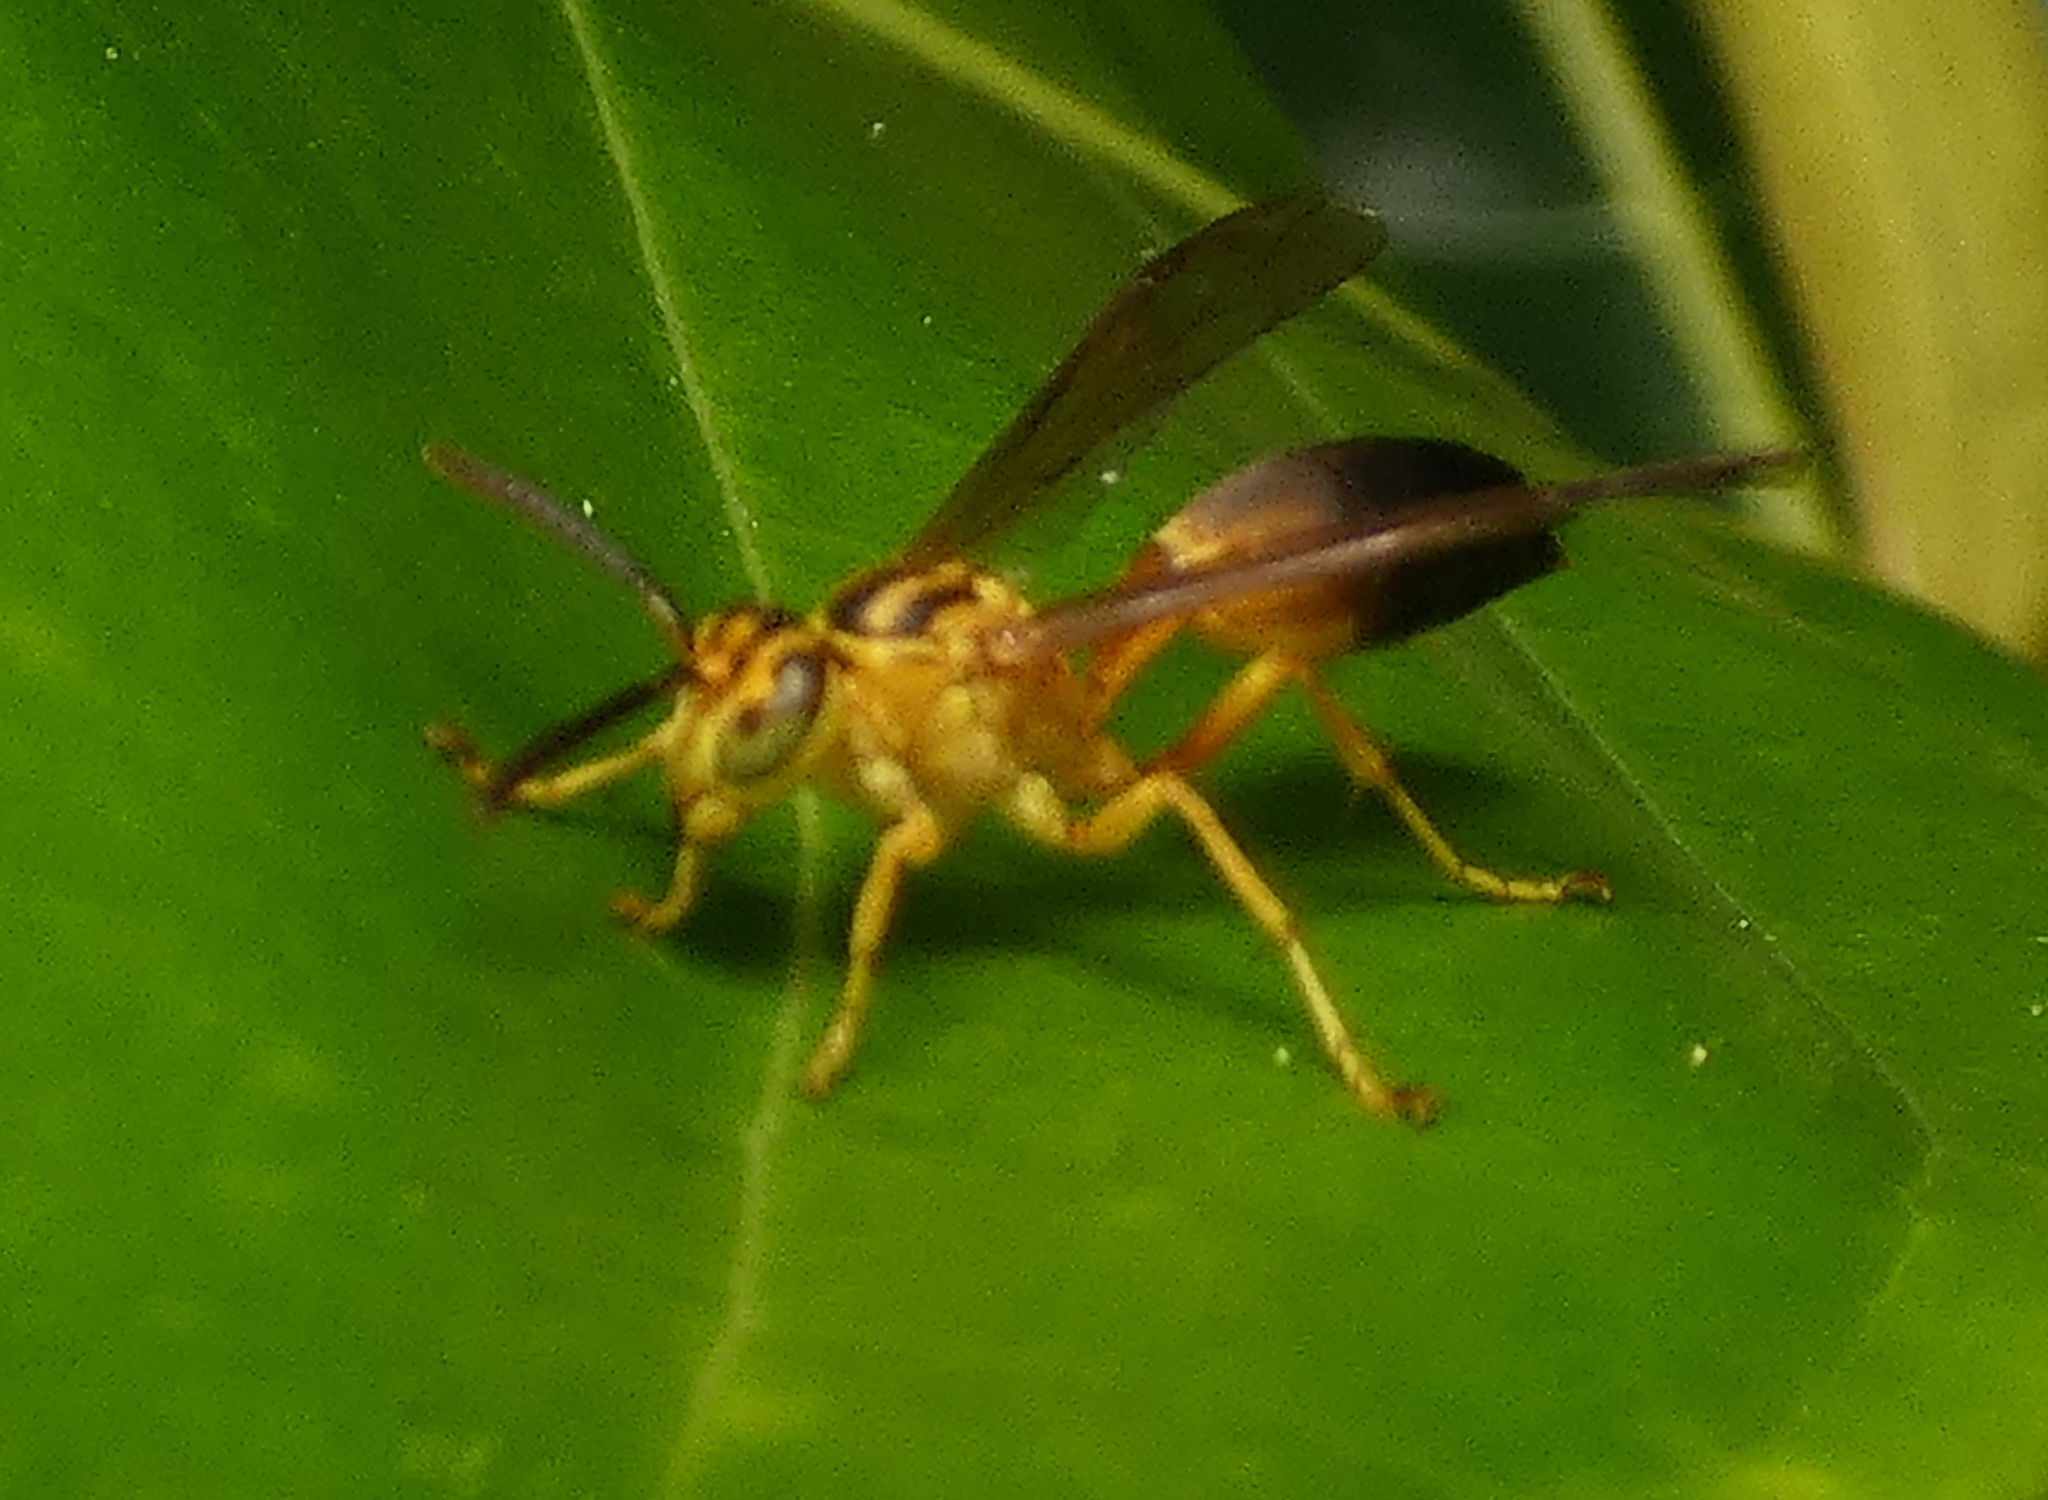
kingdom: Animalia
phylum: Arthropoda
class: Insecta
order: Hymenoptera
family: Vespidae
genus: Agelaia
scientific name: Agelaia pallipes
